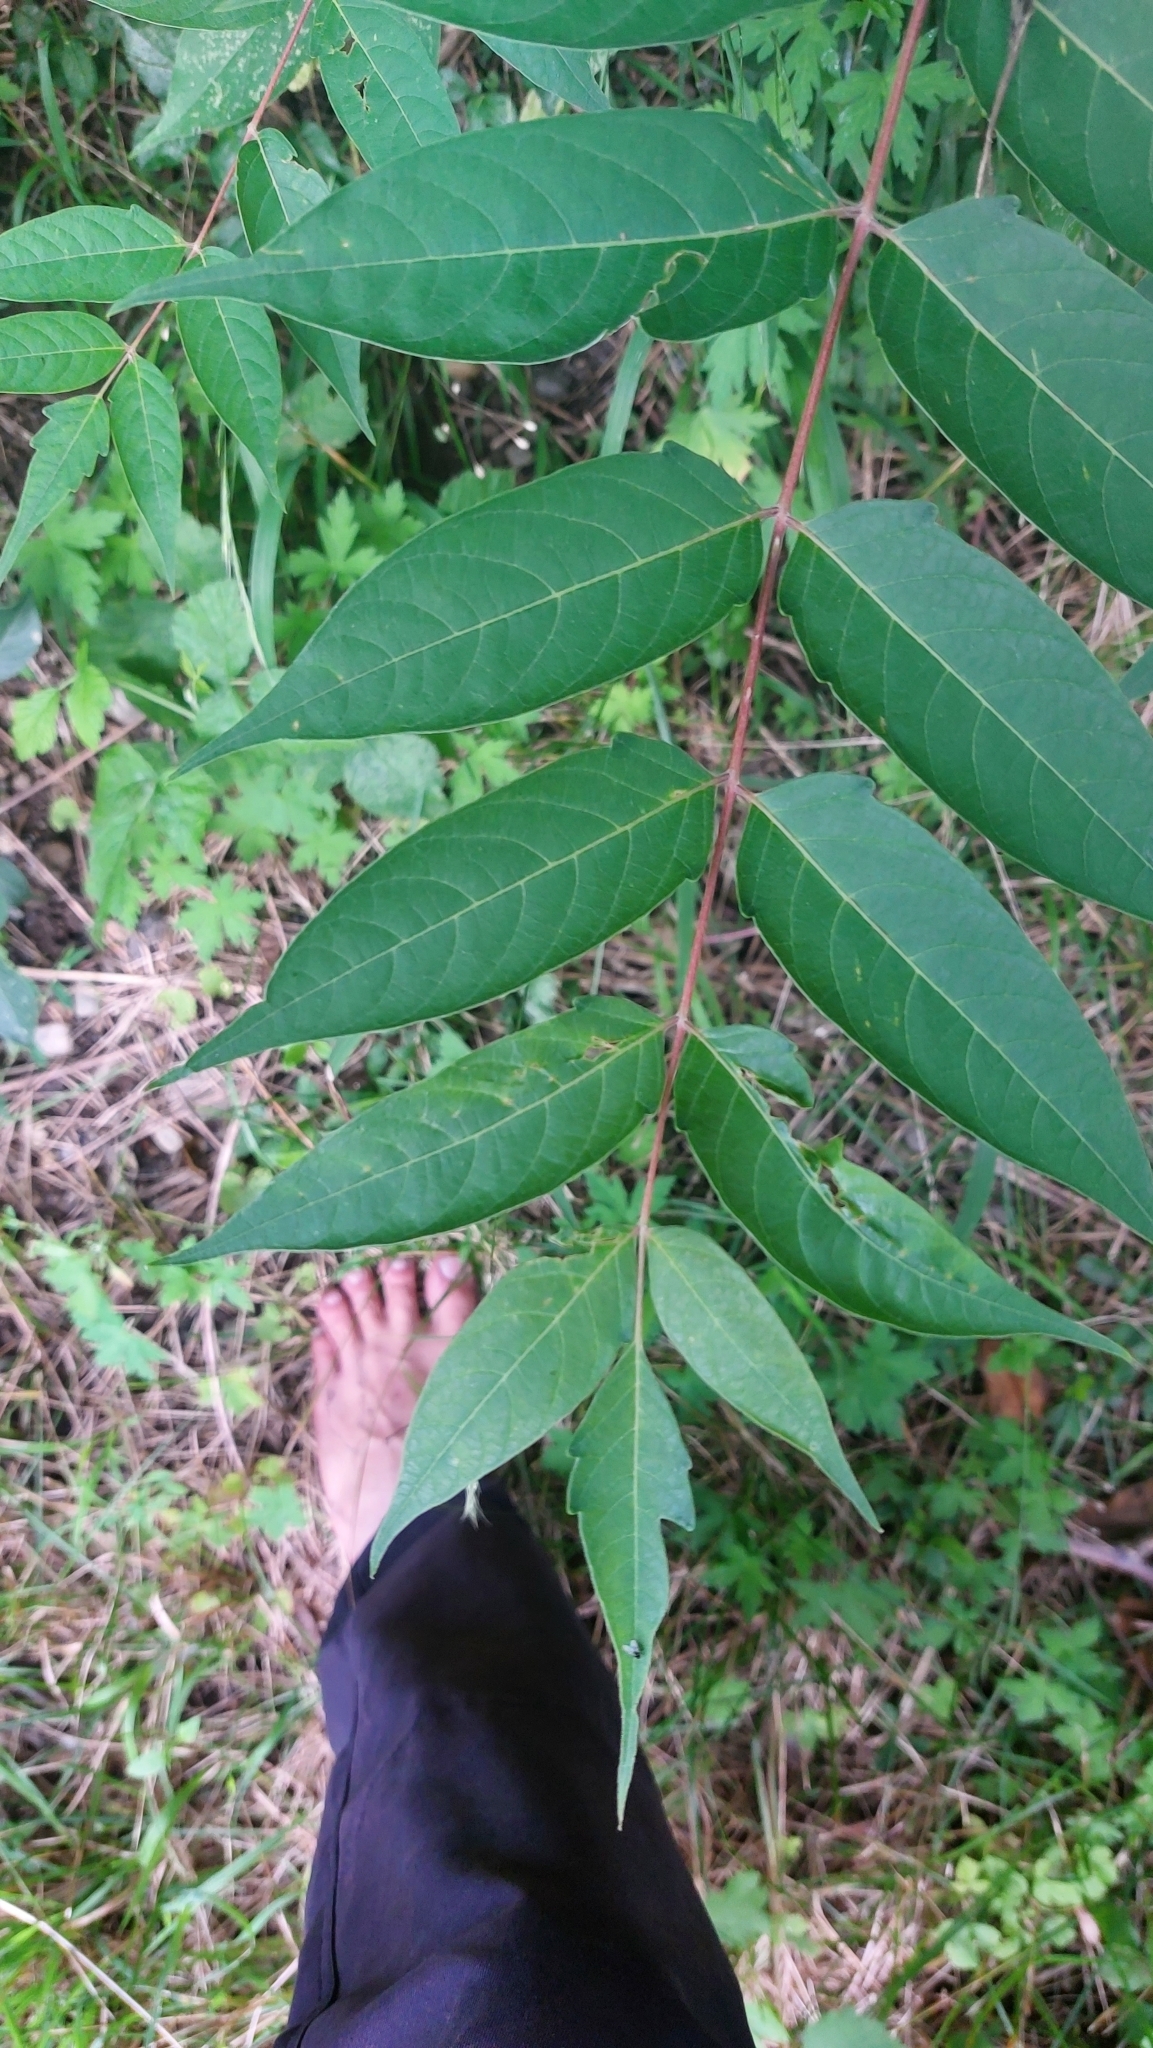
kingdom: Plantae
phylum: Tracheophyta
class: Magnoliopsida
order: Sapindales
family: Simaroubaceae
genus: Ailanthus
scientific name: Ailanthus altissima
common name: Tree-of-heaven
